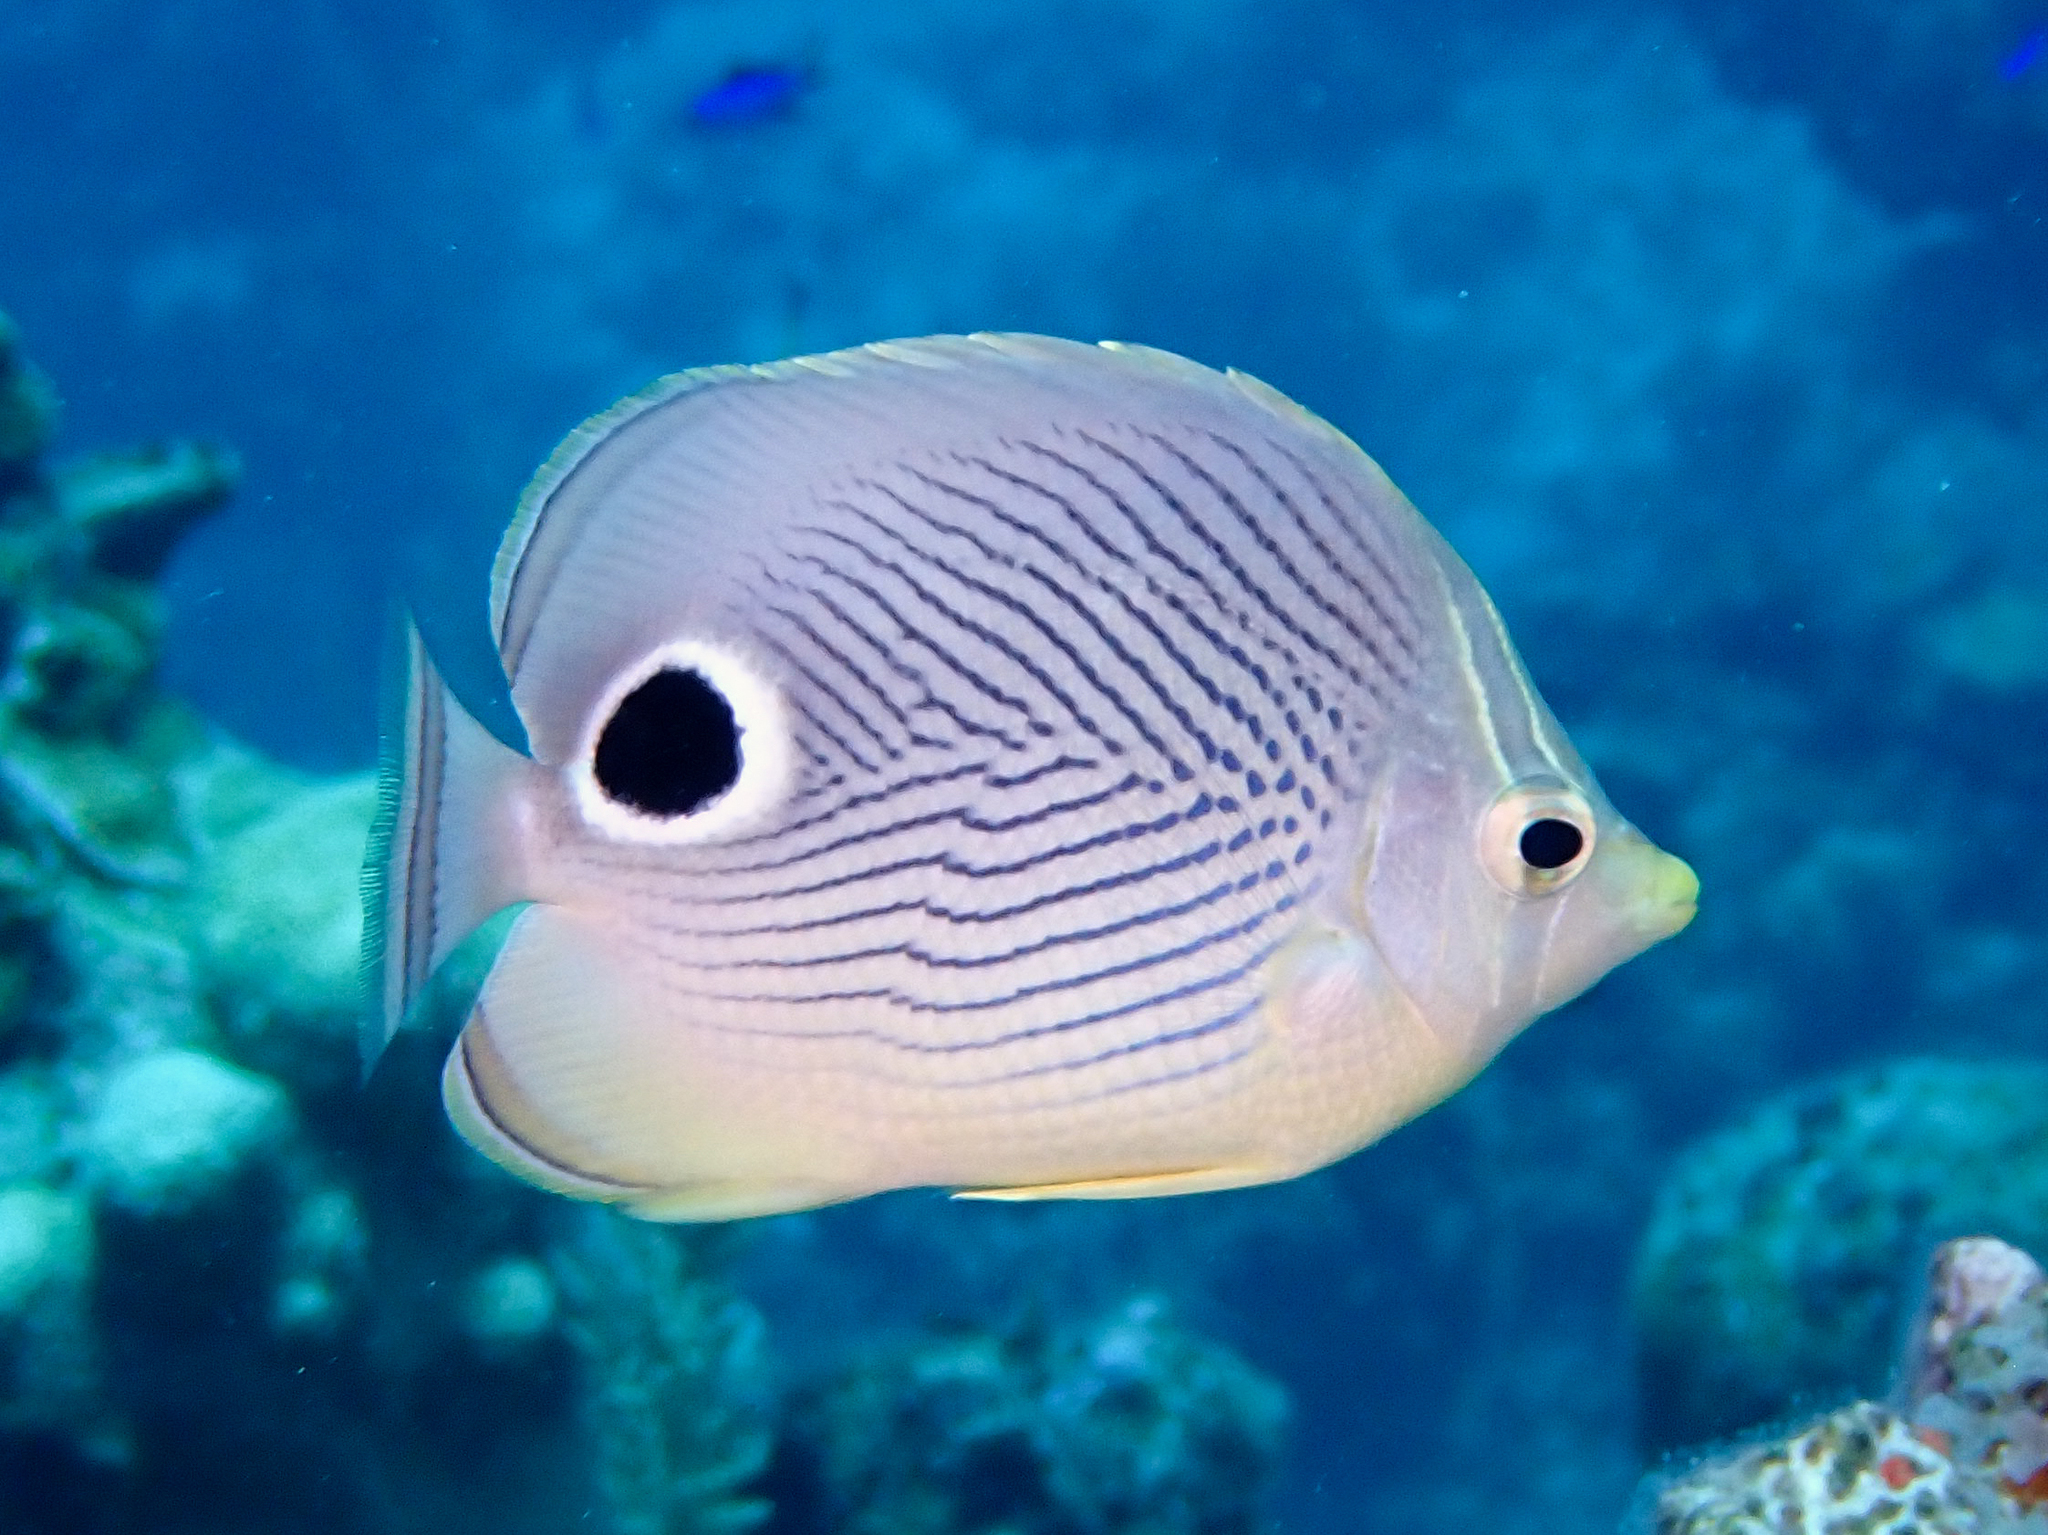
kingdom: Animalia
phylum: Chordata
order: Perciformes
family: Chaetodontidae
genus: Chaetodon
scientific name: Chaetodon capistratus
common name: Kete
